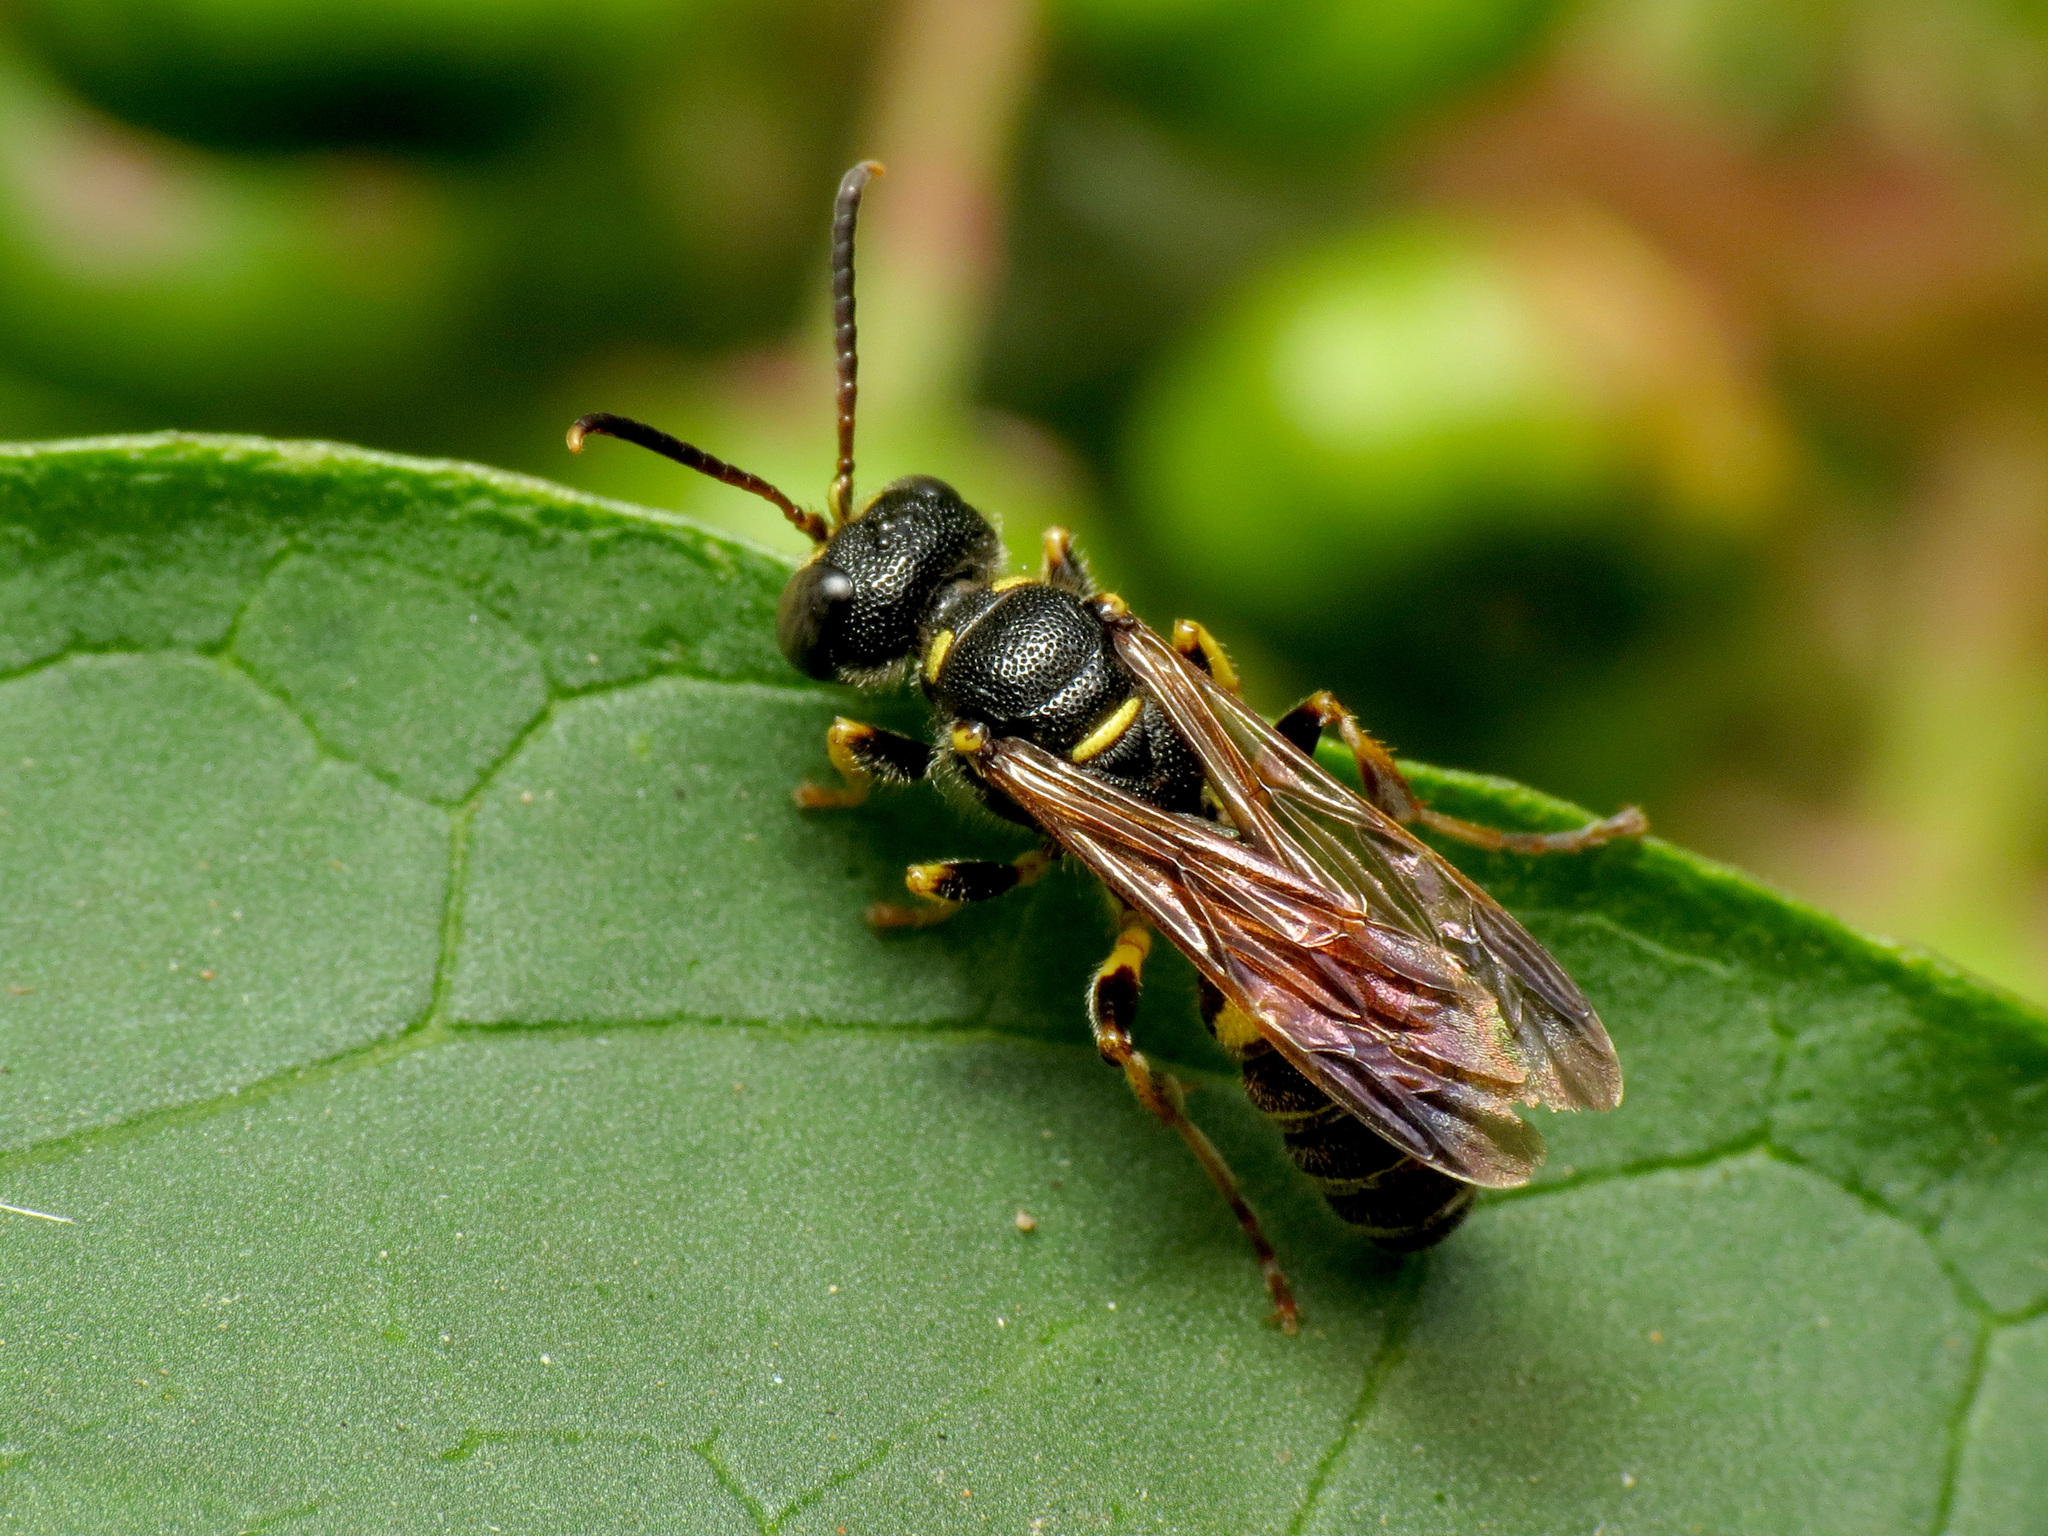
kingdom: Animalia
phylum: Arthropoda
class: Insecta
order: Hymenoptera
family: Crabronidae
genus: Cerceris
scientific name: Cerceris clypeata
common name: Weevil wasp
